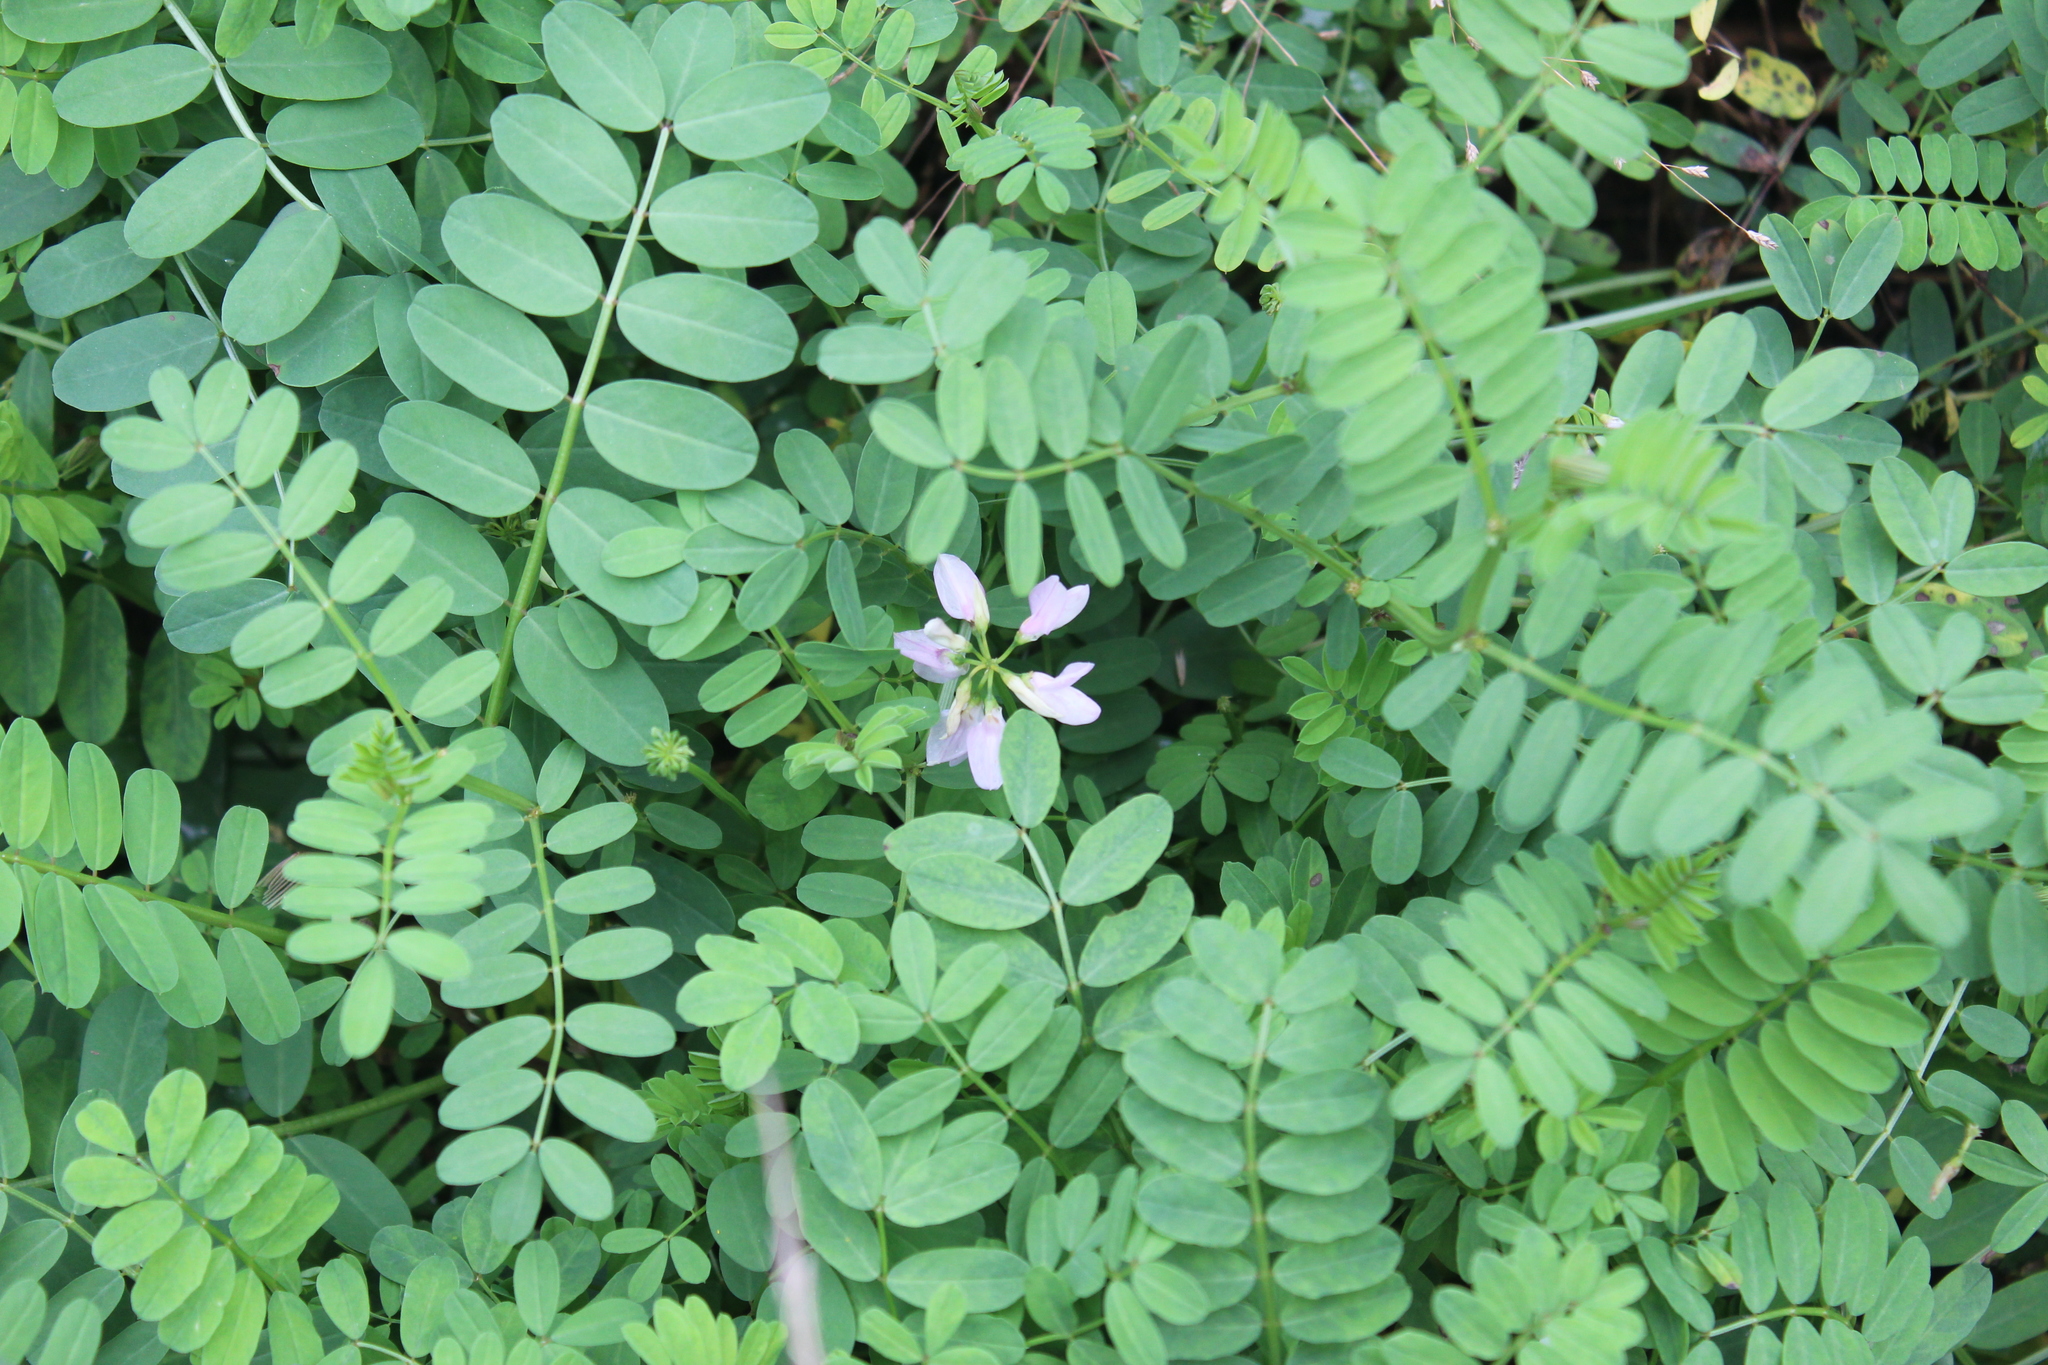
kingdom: Plantae
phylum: Tracheophyta
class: Magnoliopsida
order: Fabales
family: Fabaceae
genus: Coronilla
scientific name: Coronilla varia
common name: Crownvetch
